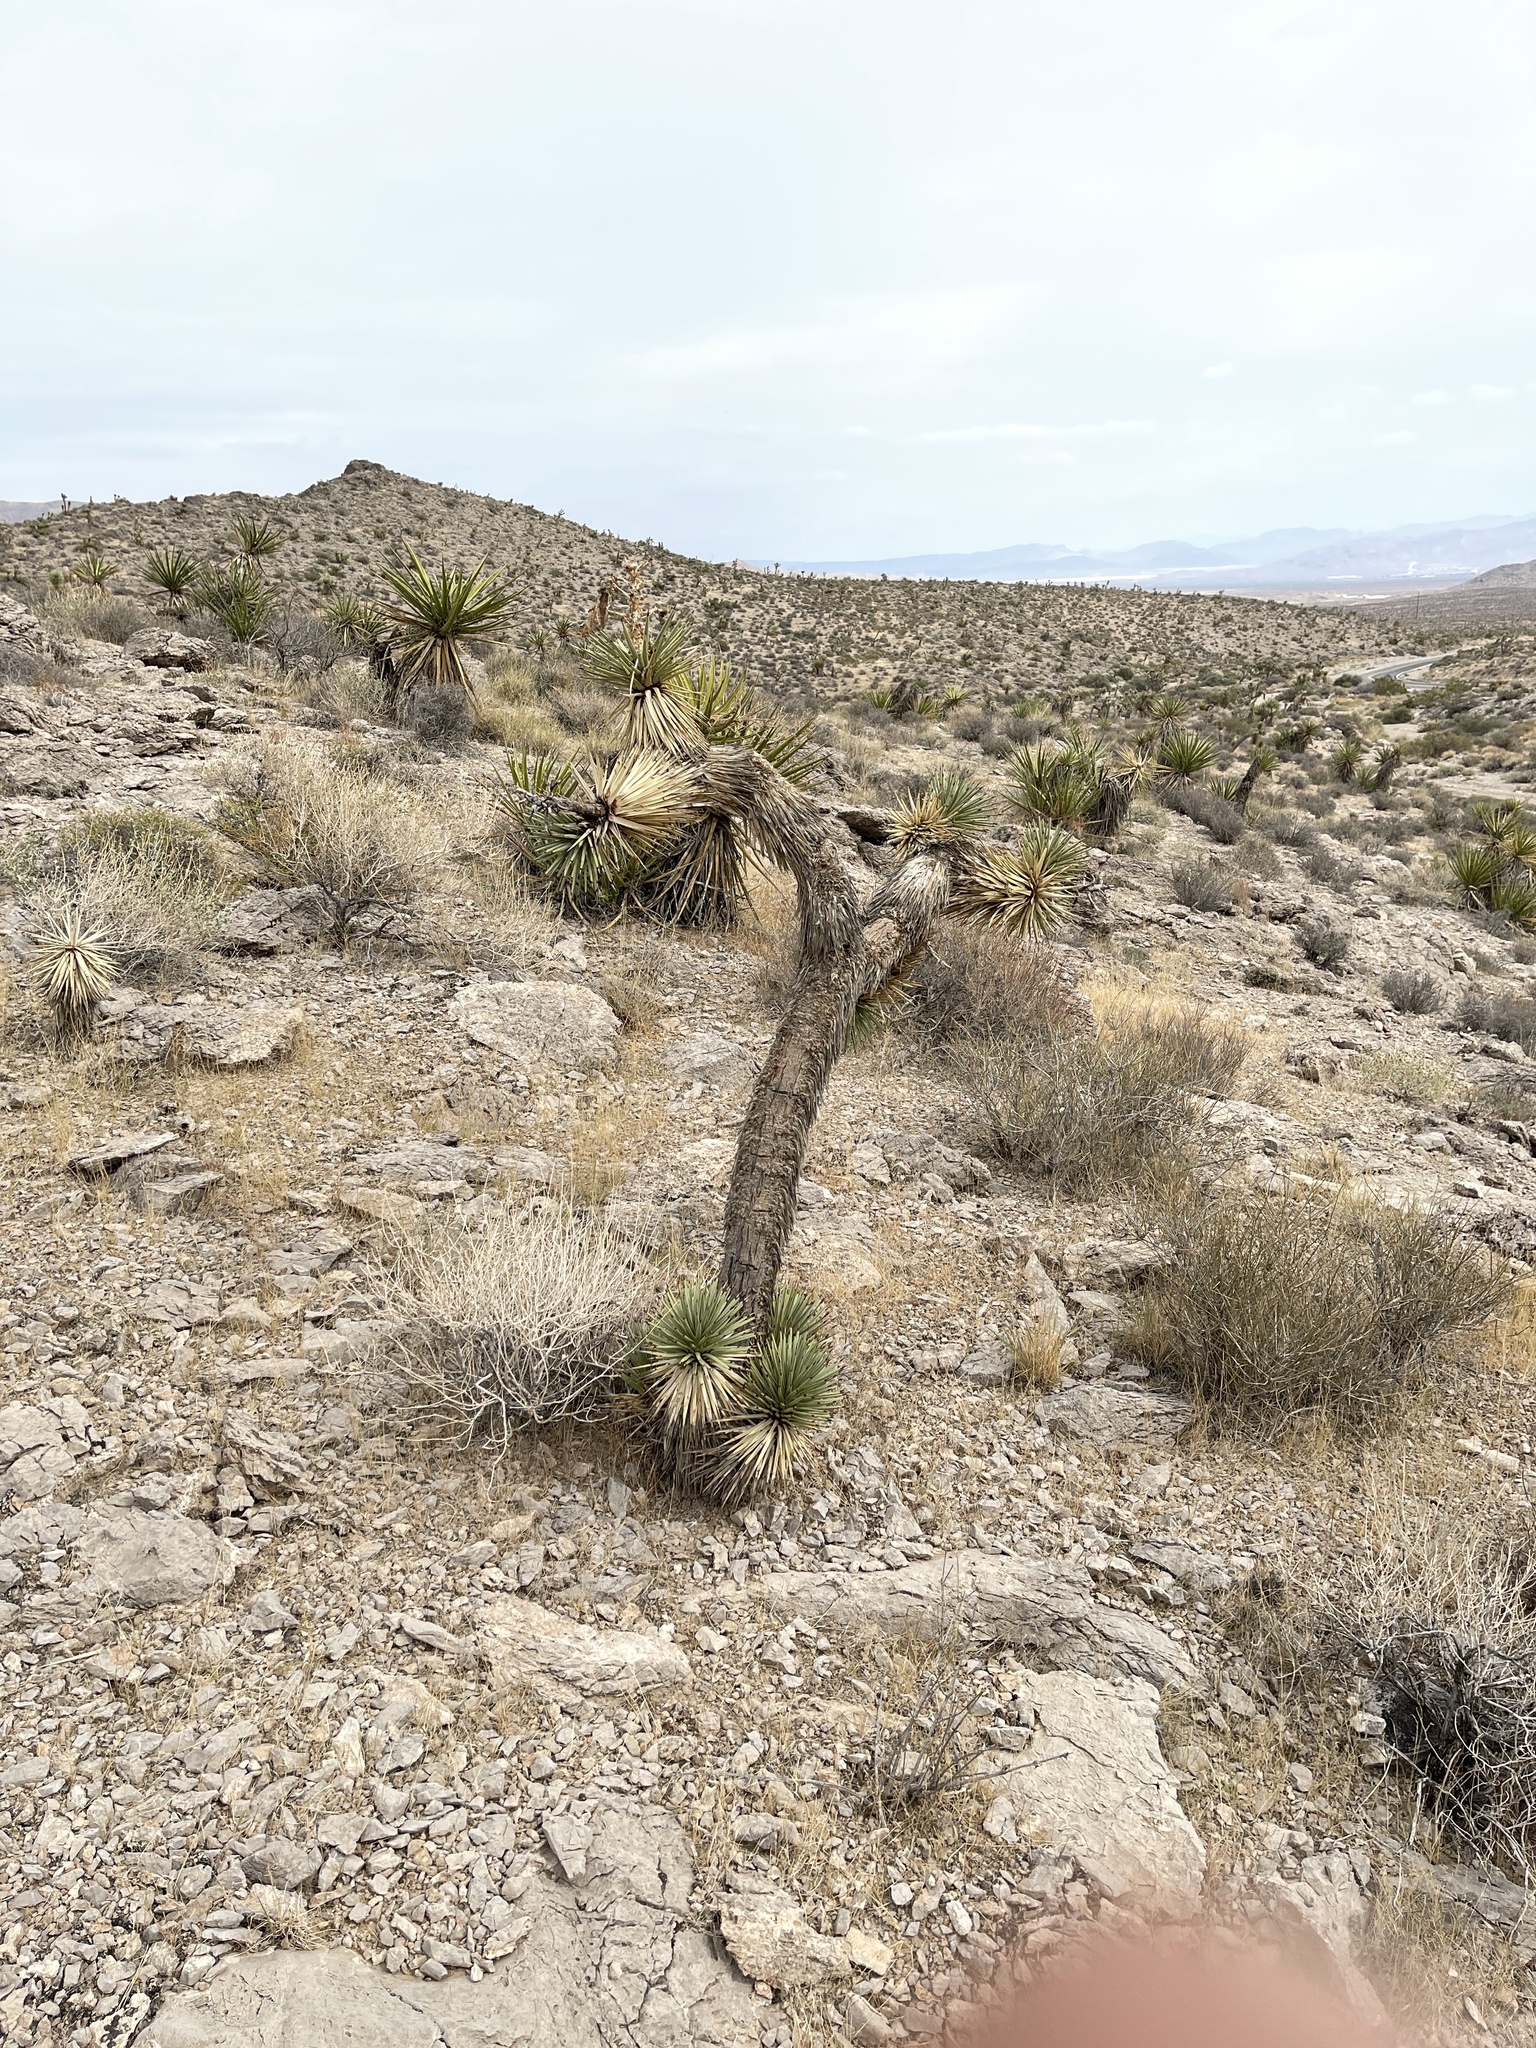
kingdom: Plantae
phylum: Tracheophyta
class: Liliopsida
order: Asparagales
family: Asparagaceae
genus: Yucca
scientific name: Yucca brevifolia
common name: Joshua tree
